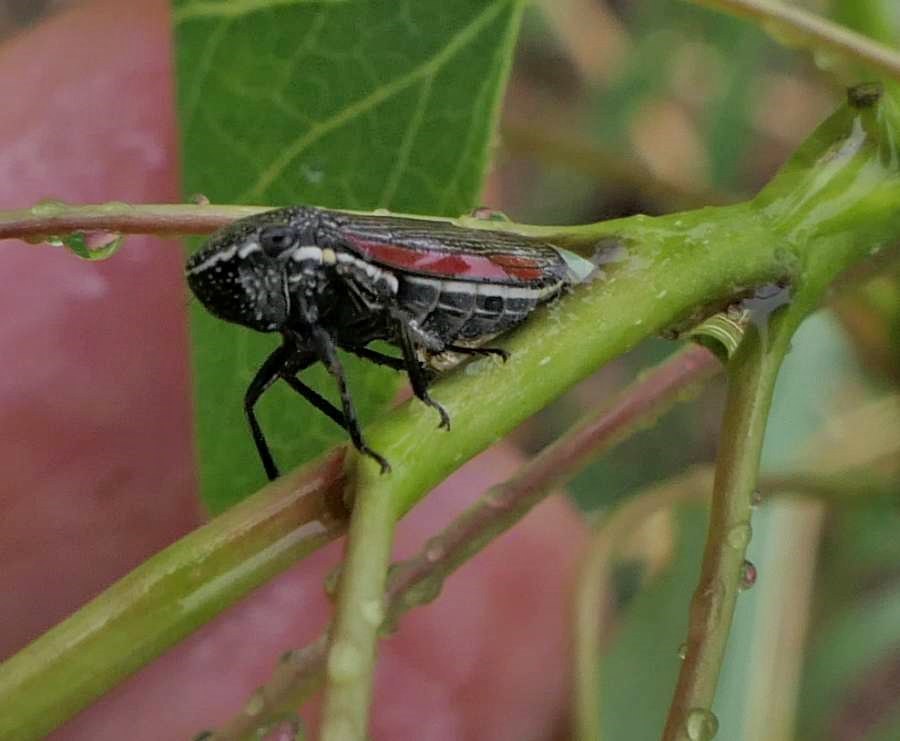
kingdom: Animalia
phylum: Arthropoda
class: Insecta
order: Hemiptera
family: Cicadellidae
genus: Cuerna
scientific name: Cuerna striata
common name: Striped leafhopper
